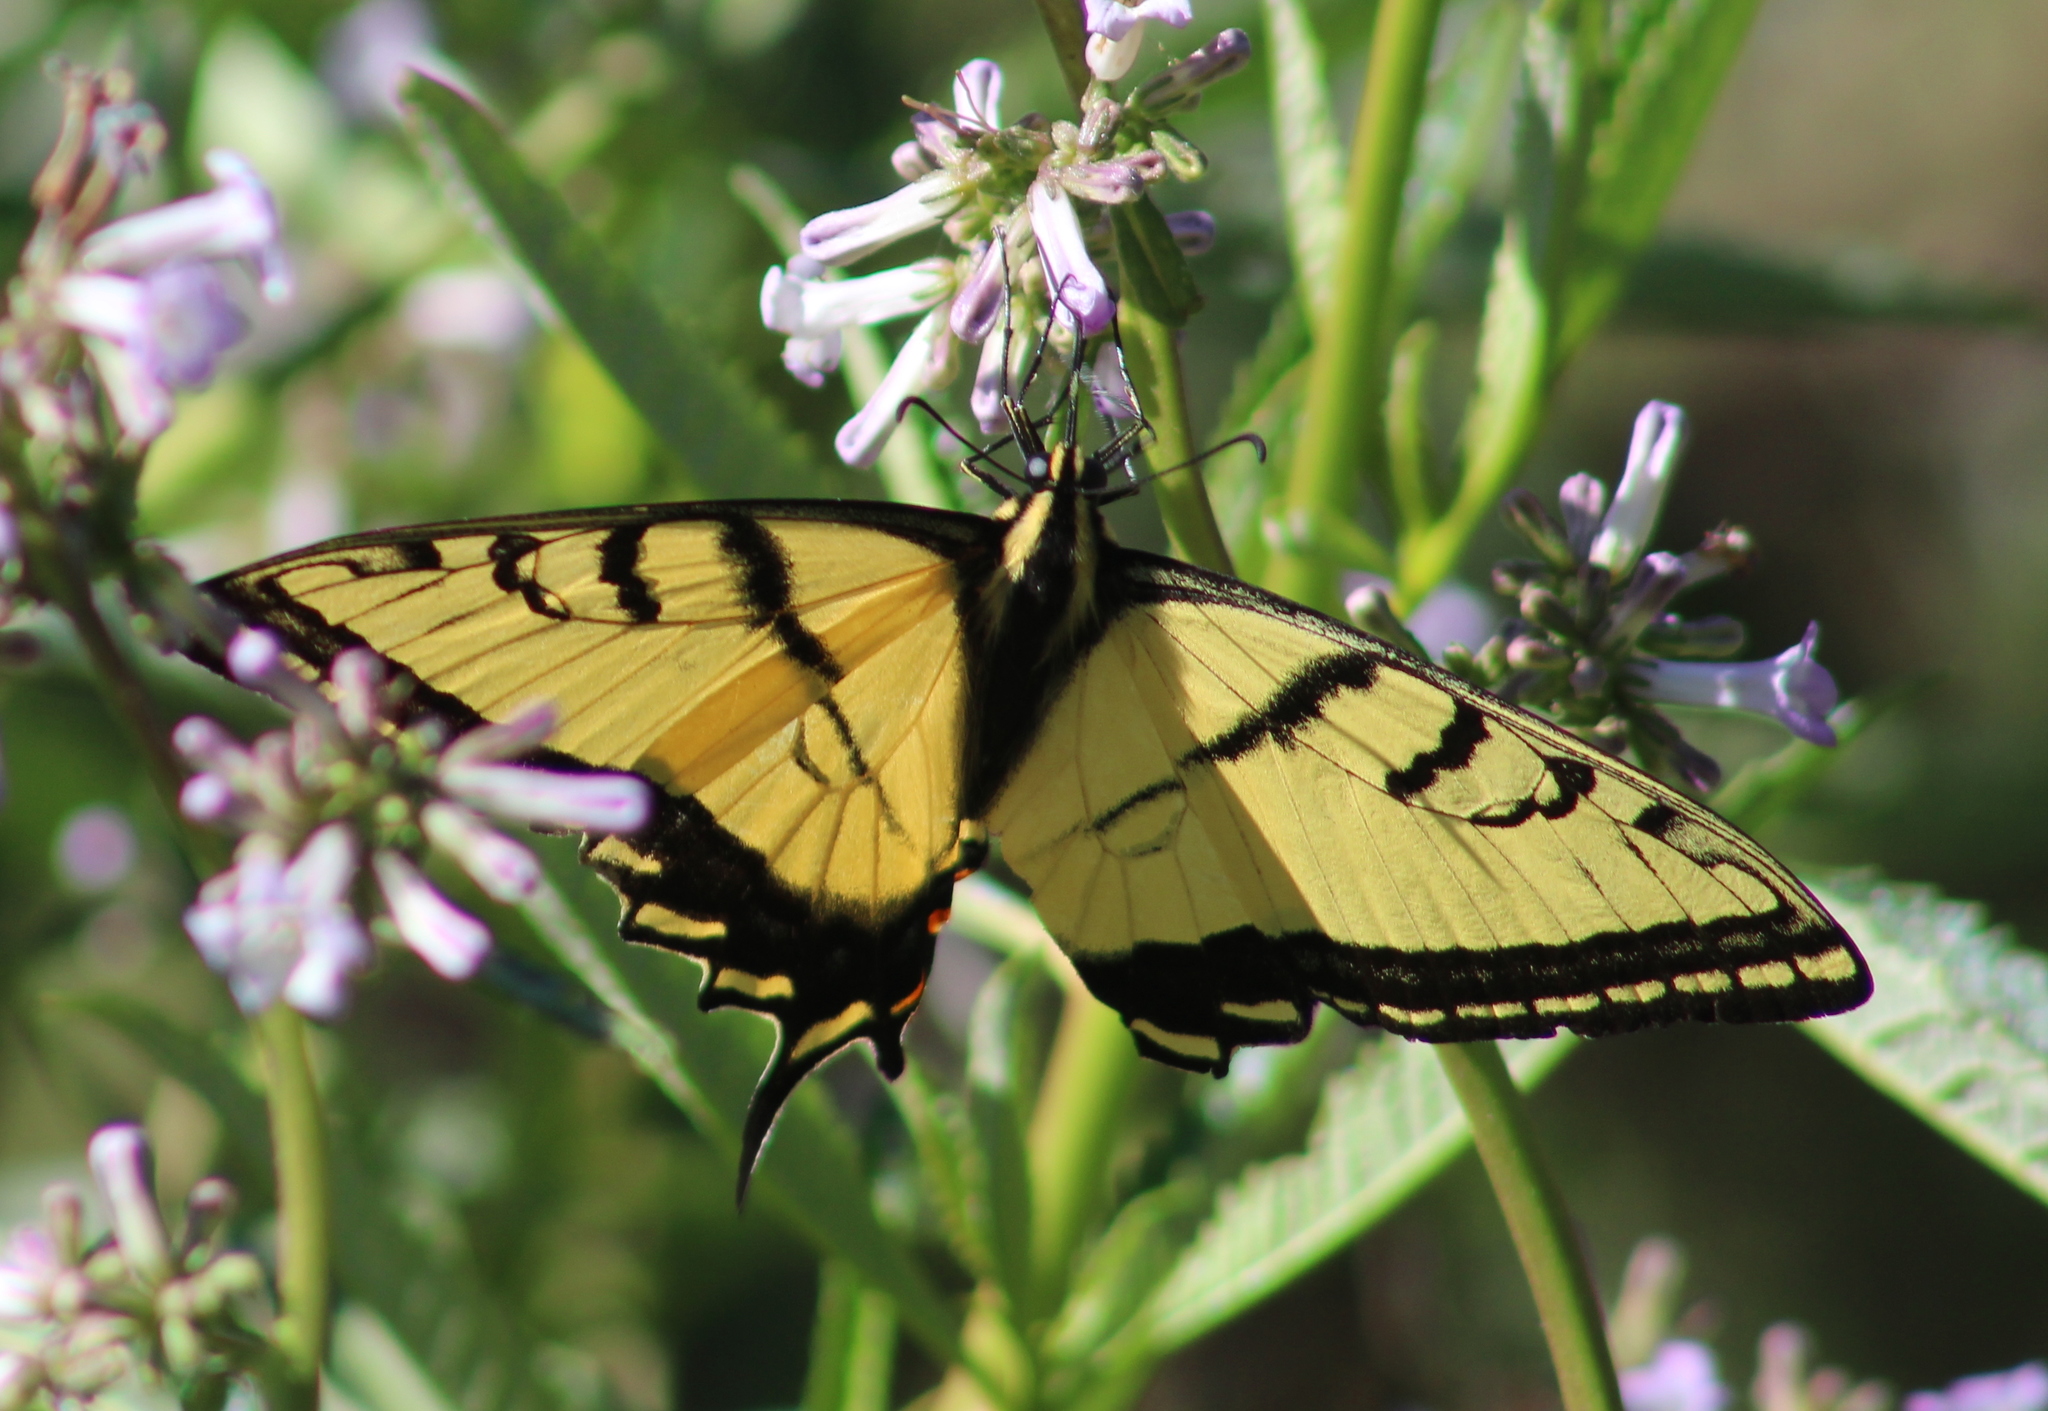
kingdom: Animalia
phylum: Arthropoda
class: Insecta
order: Lepidoptera
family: Papilionidae
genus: Papilio
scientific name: Papilio multicaudata
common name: Two-tailed tiger swallowtail
